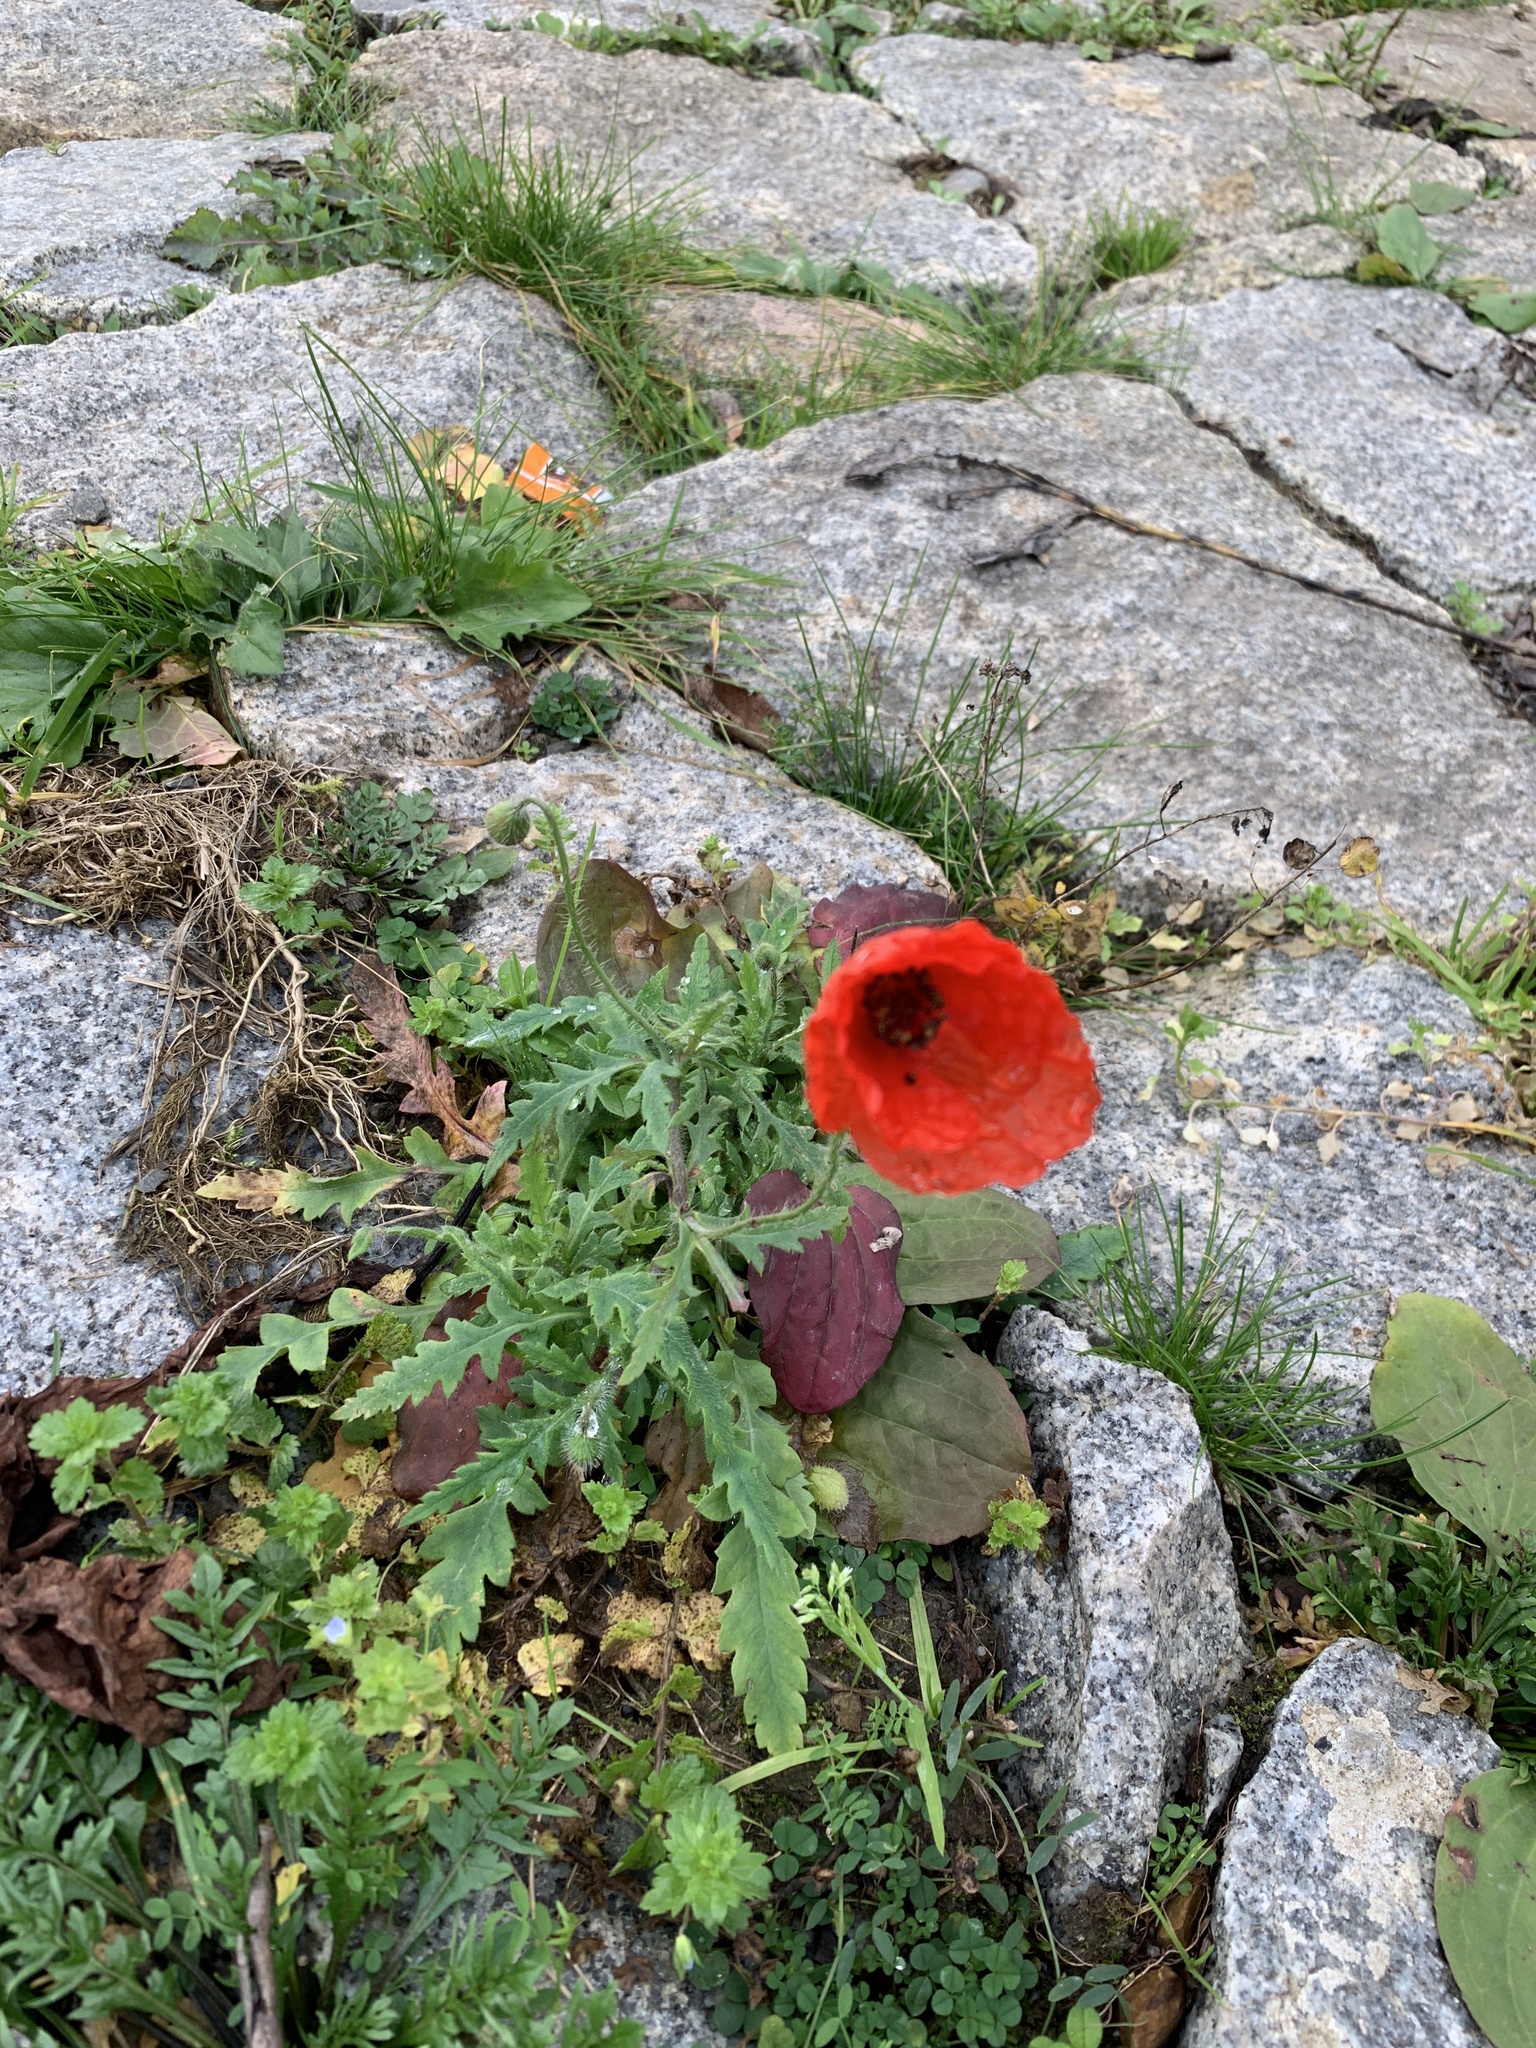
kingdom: Plantae
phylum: Tracheophyta
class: Magnoliopsida
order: Ranunculales
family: Papaveraceae
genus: Papaver
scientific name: Papaver rhoeas
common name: Corn poppy
